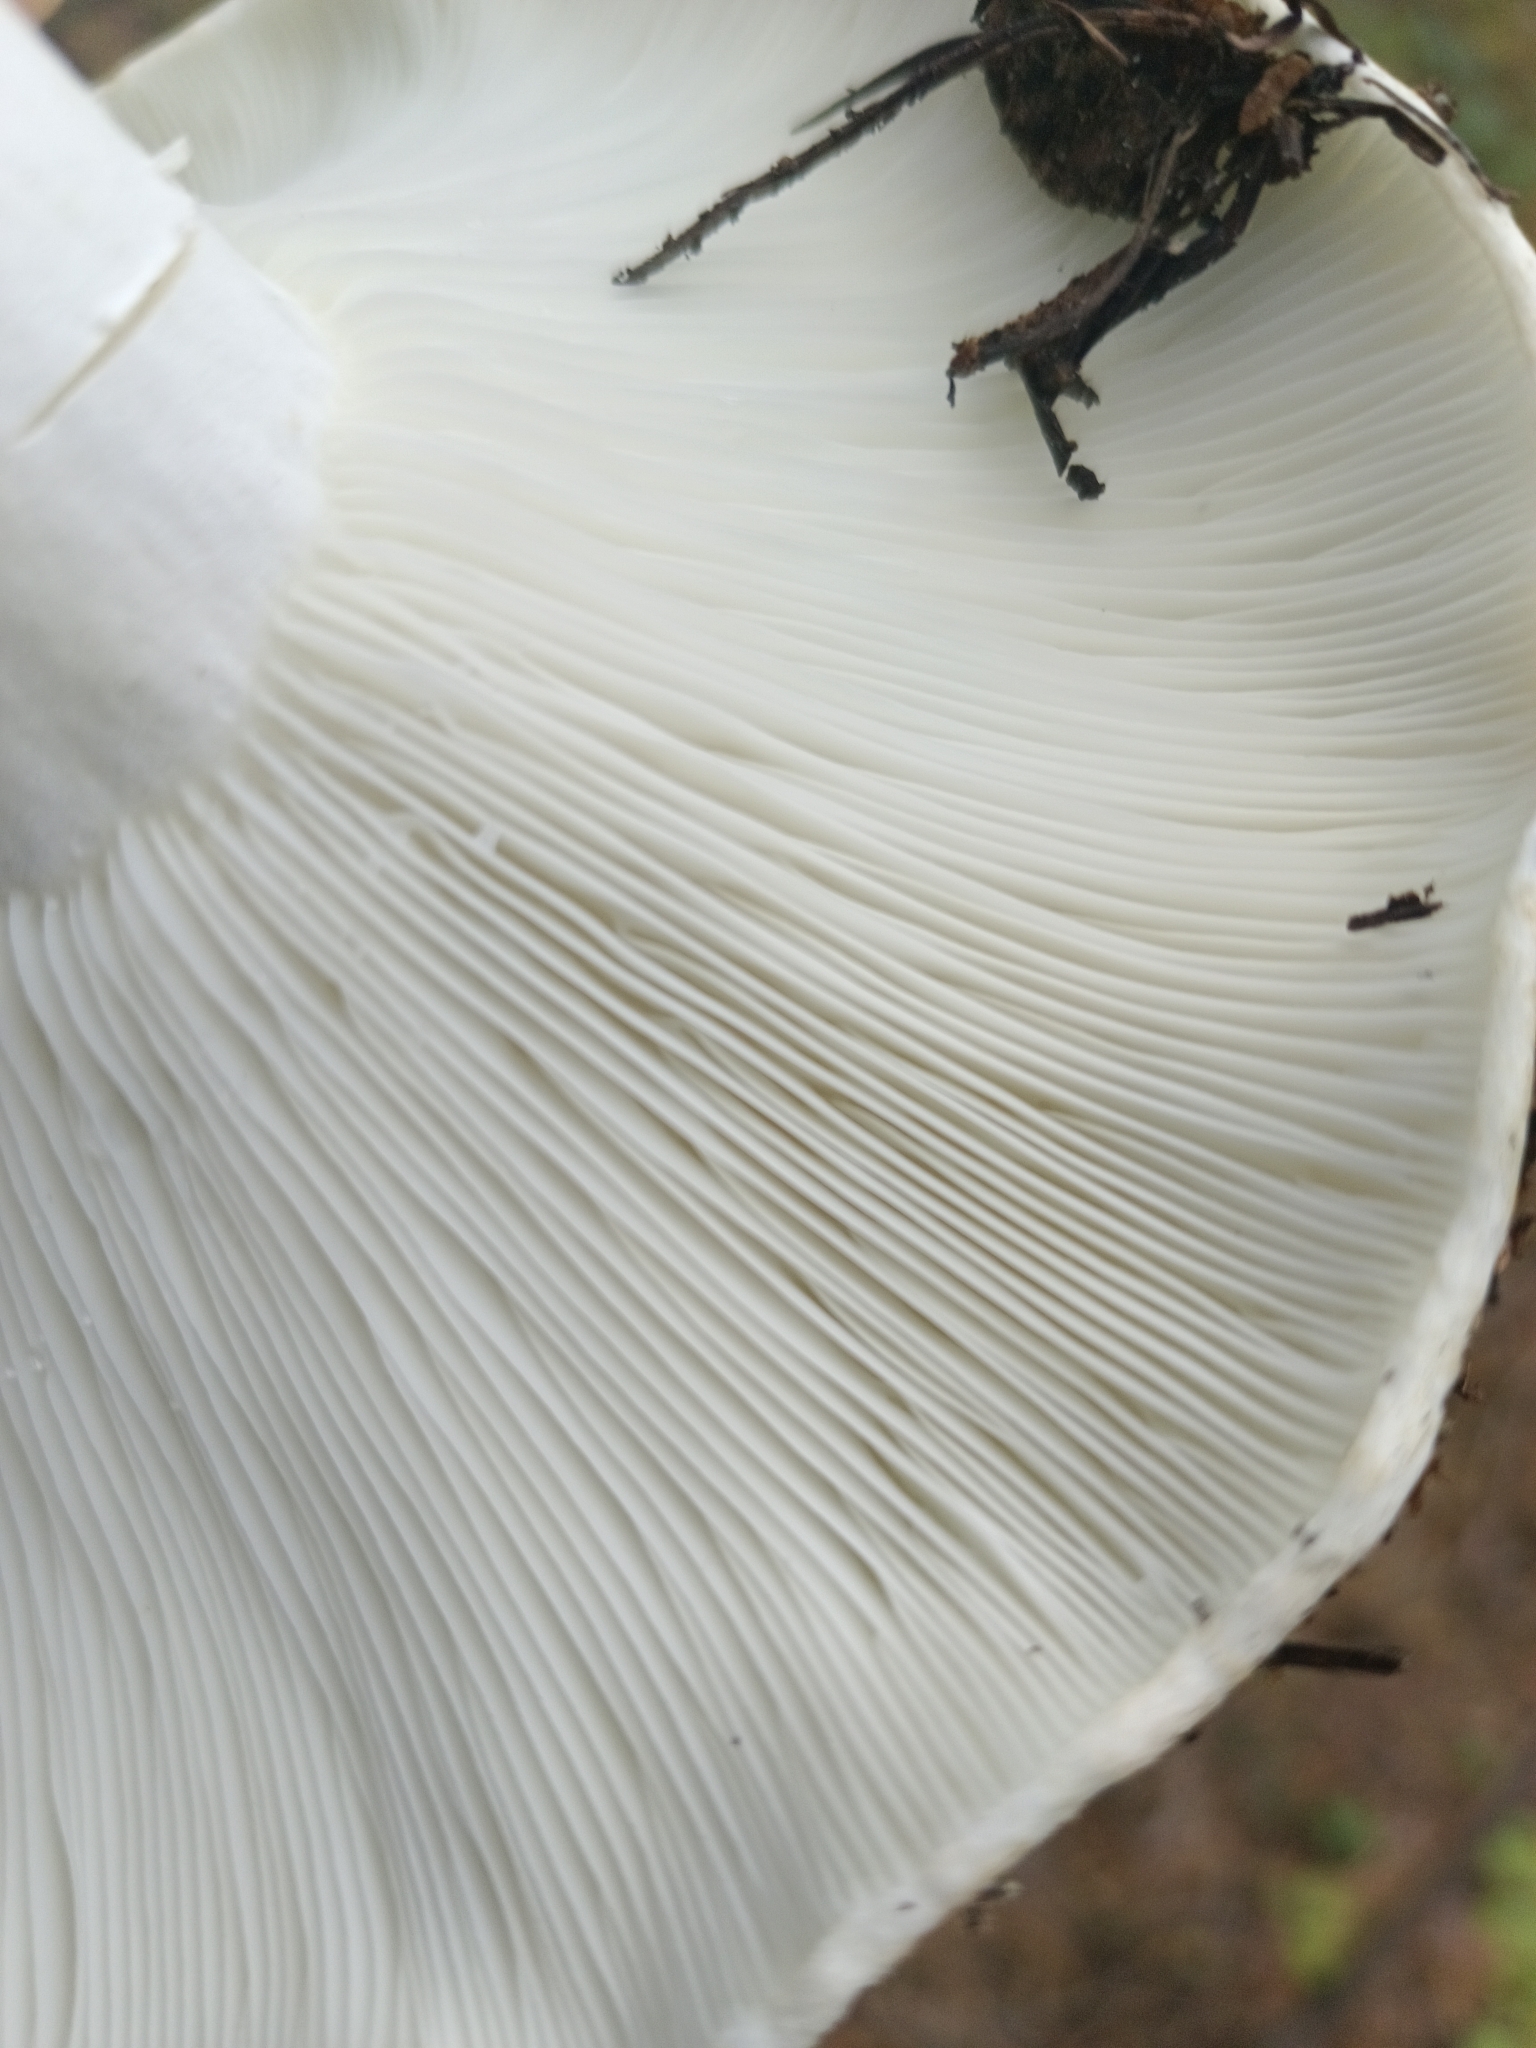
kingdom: Fungi
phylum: Basidiomycota
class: Agaricomycetes
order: Russulales
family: Russulaceae
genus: Russula
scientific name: Russula delica
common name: Milk white brittlegill
